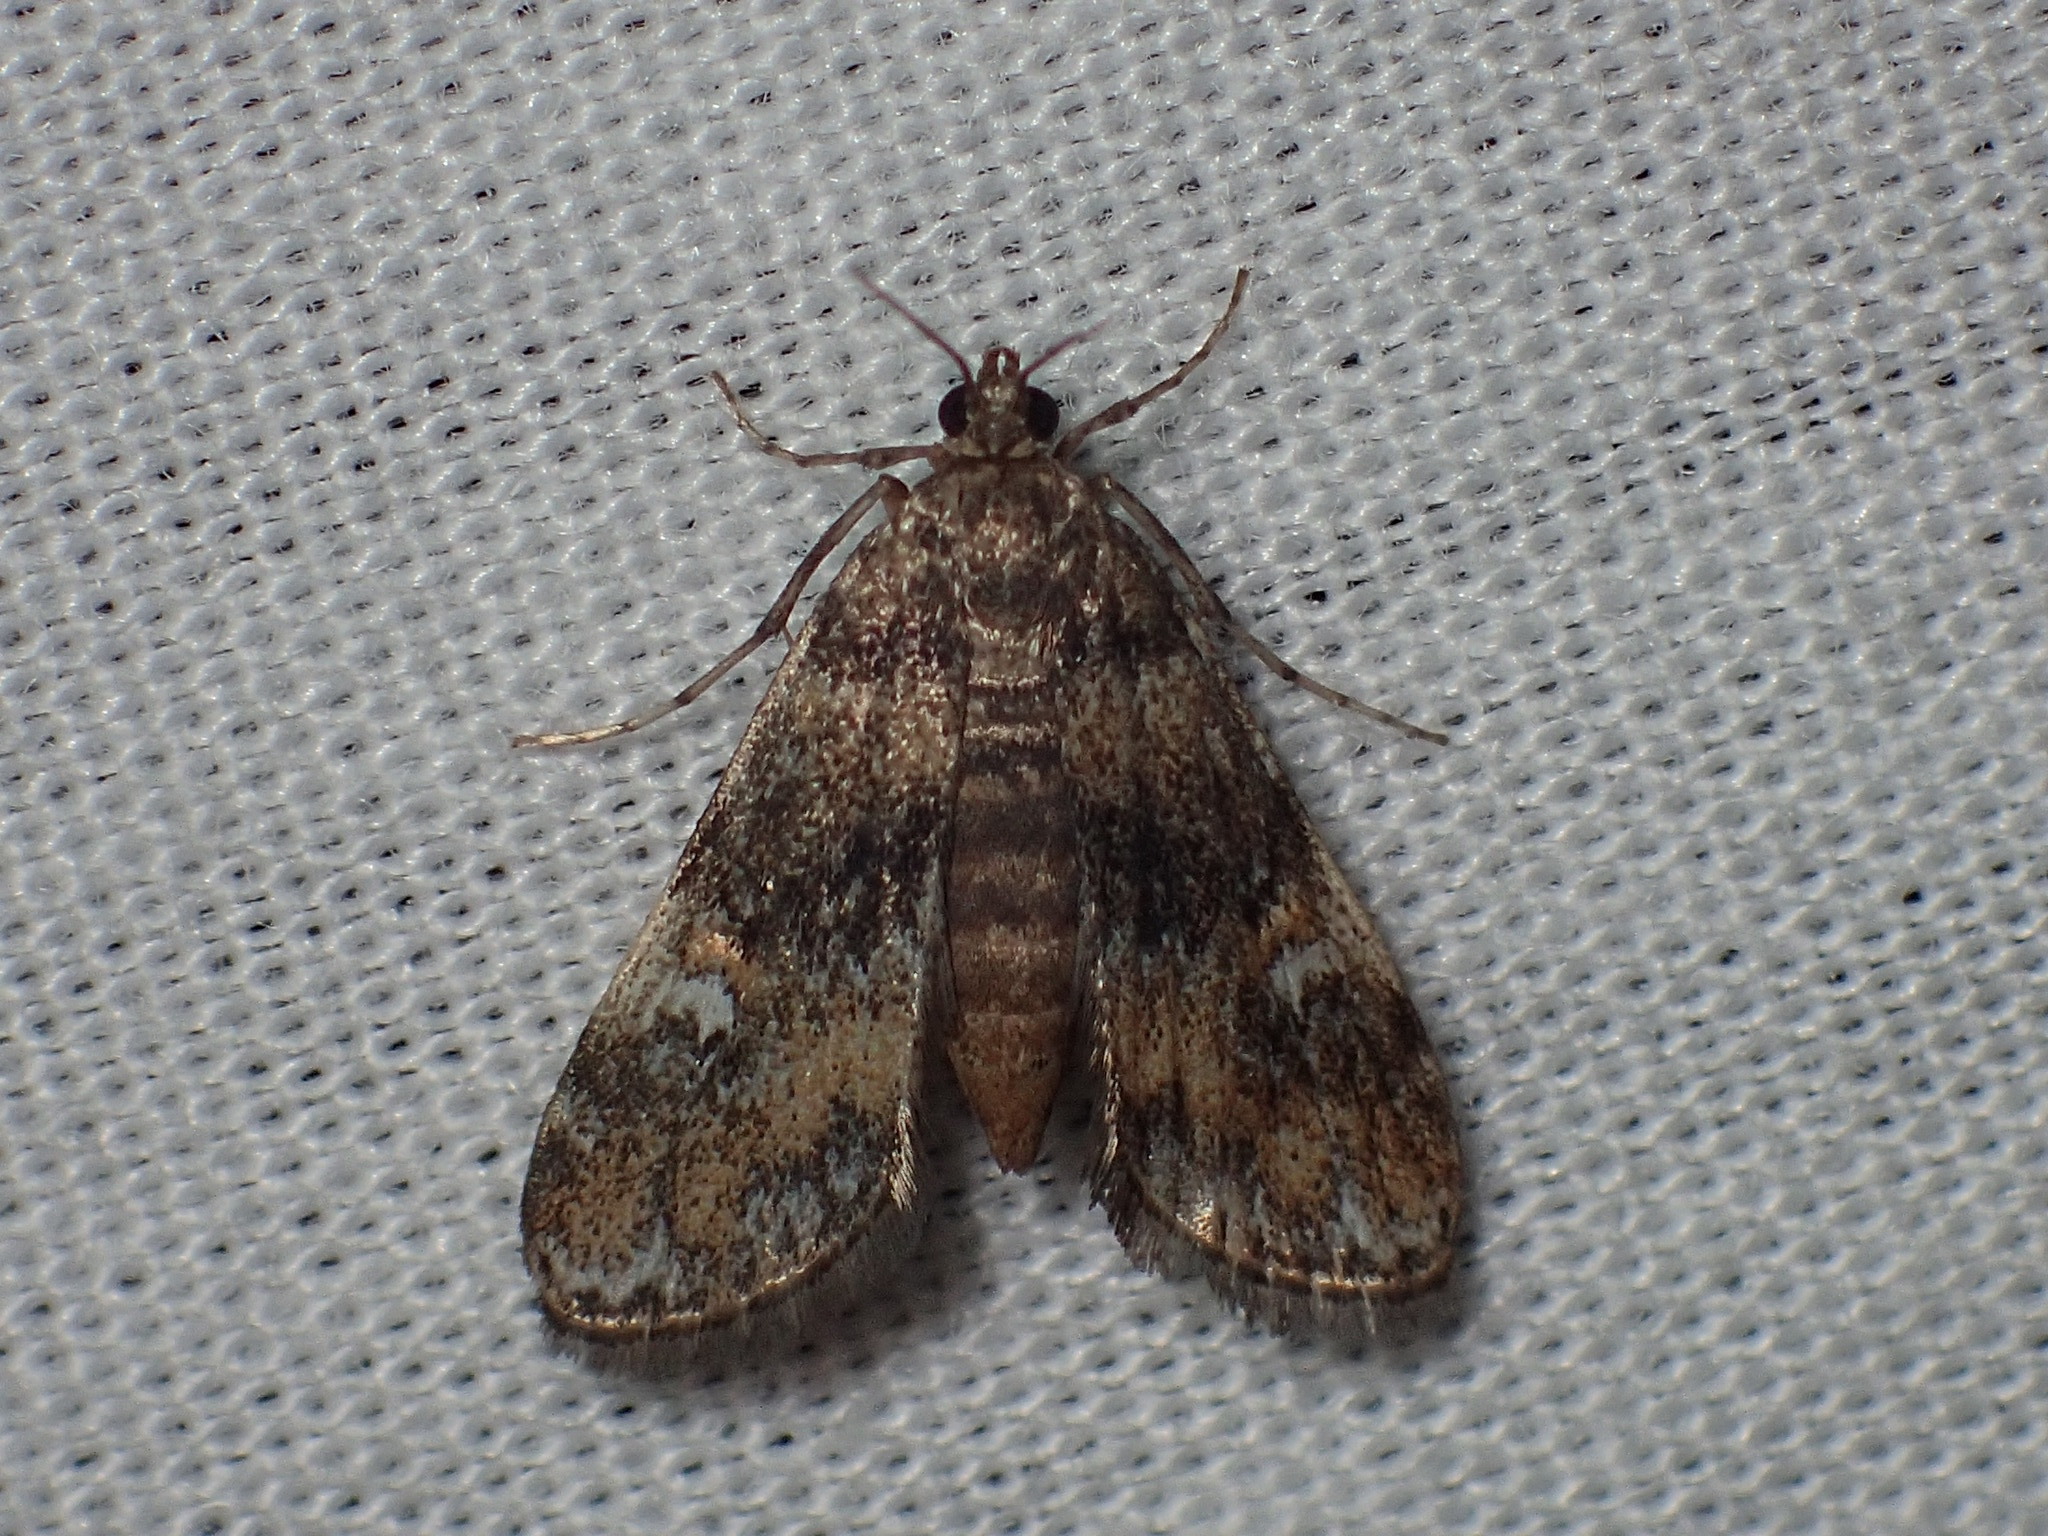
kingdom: Animalia
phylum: Arthropoda
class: Insecta
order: Lepidoptera
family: Crambidae
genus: Elophila
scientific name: Elophila obliteralis
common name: Waterlily leafcutter moth
